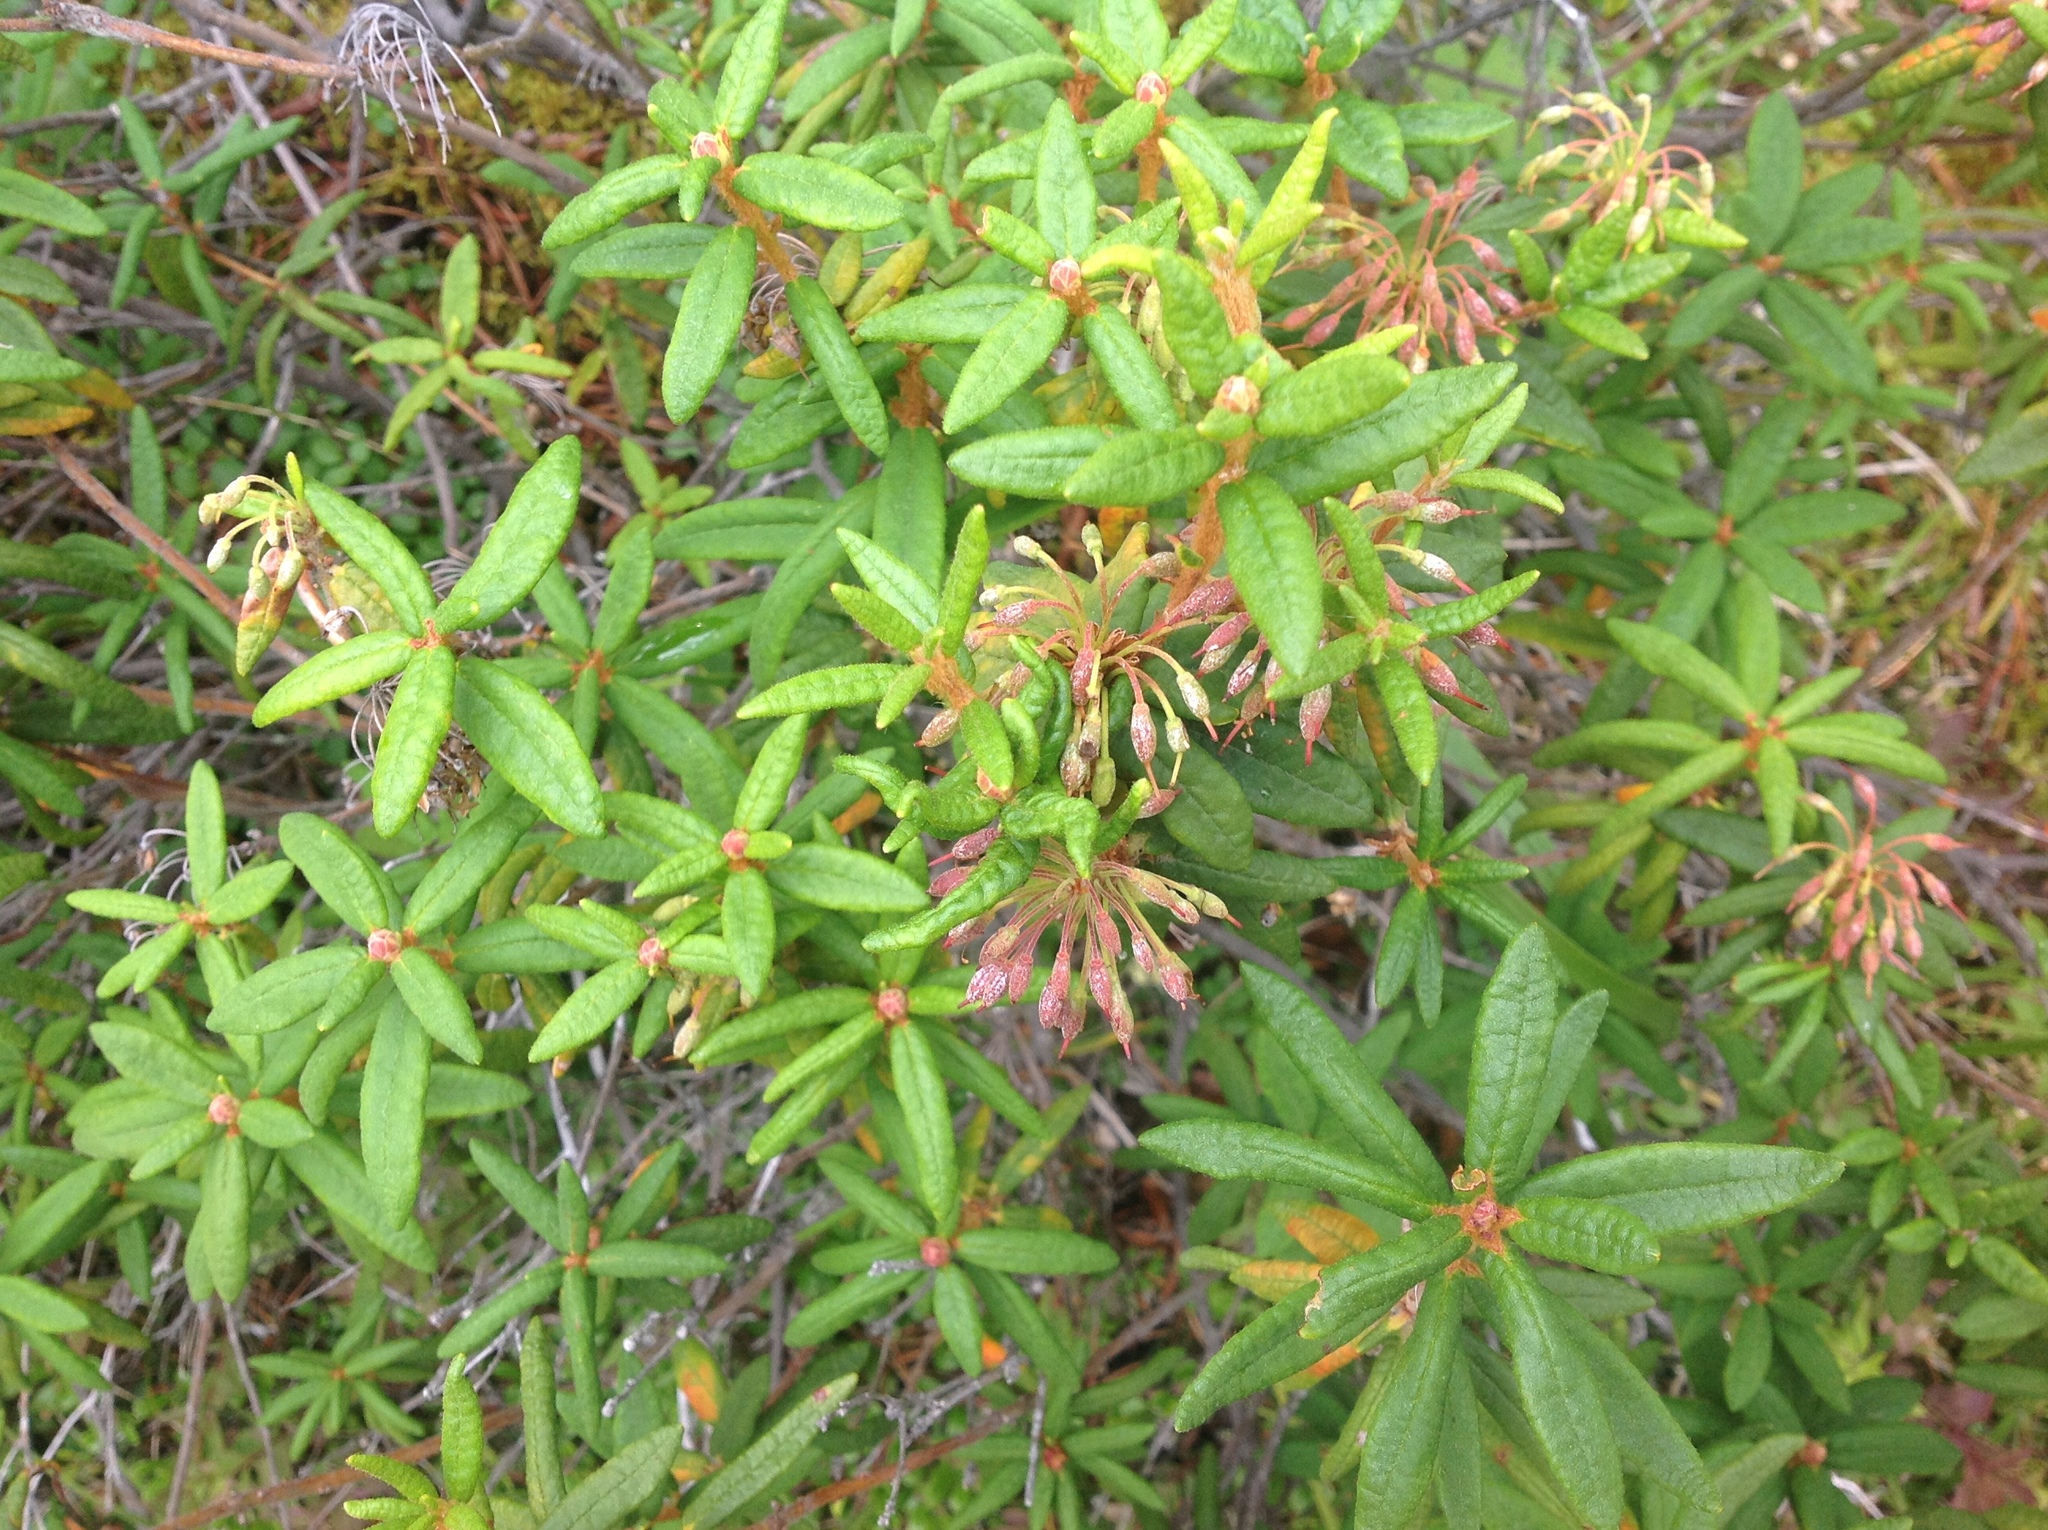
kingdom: Plantae
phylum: Tracheophyta
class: Magnoliopsida
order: Ericales
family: Ericaceae
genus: Rhododendron
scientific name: Rhododendron groenlandicum
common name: Bog labrador tea
